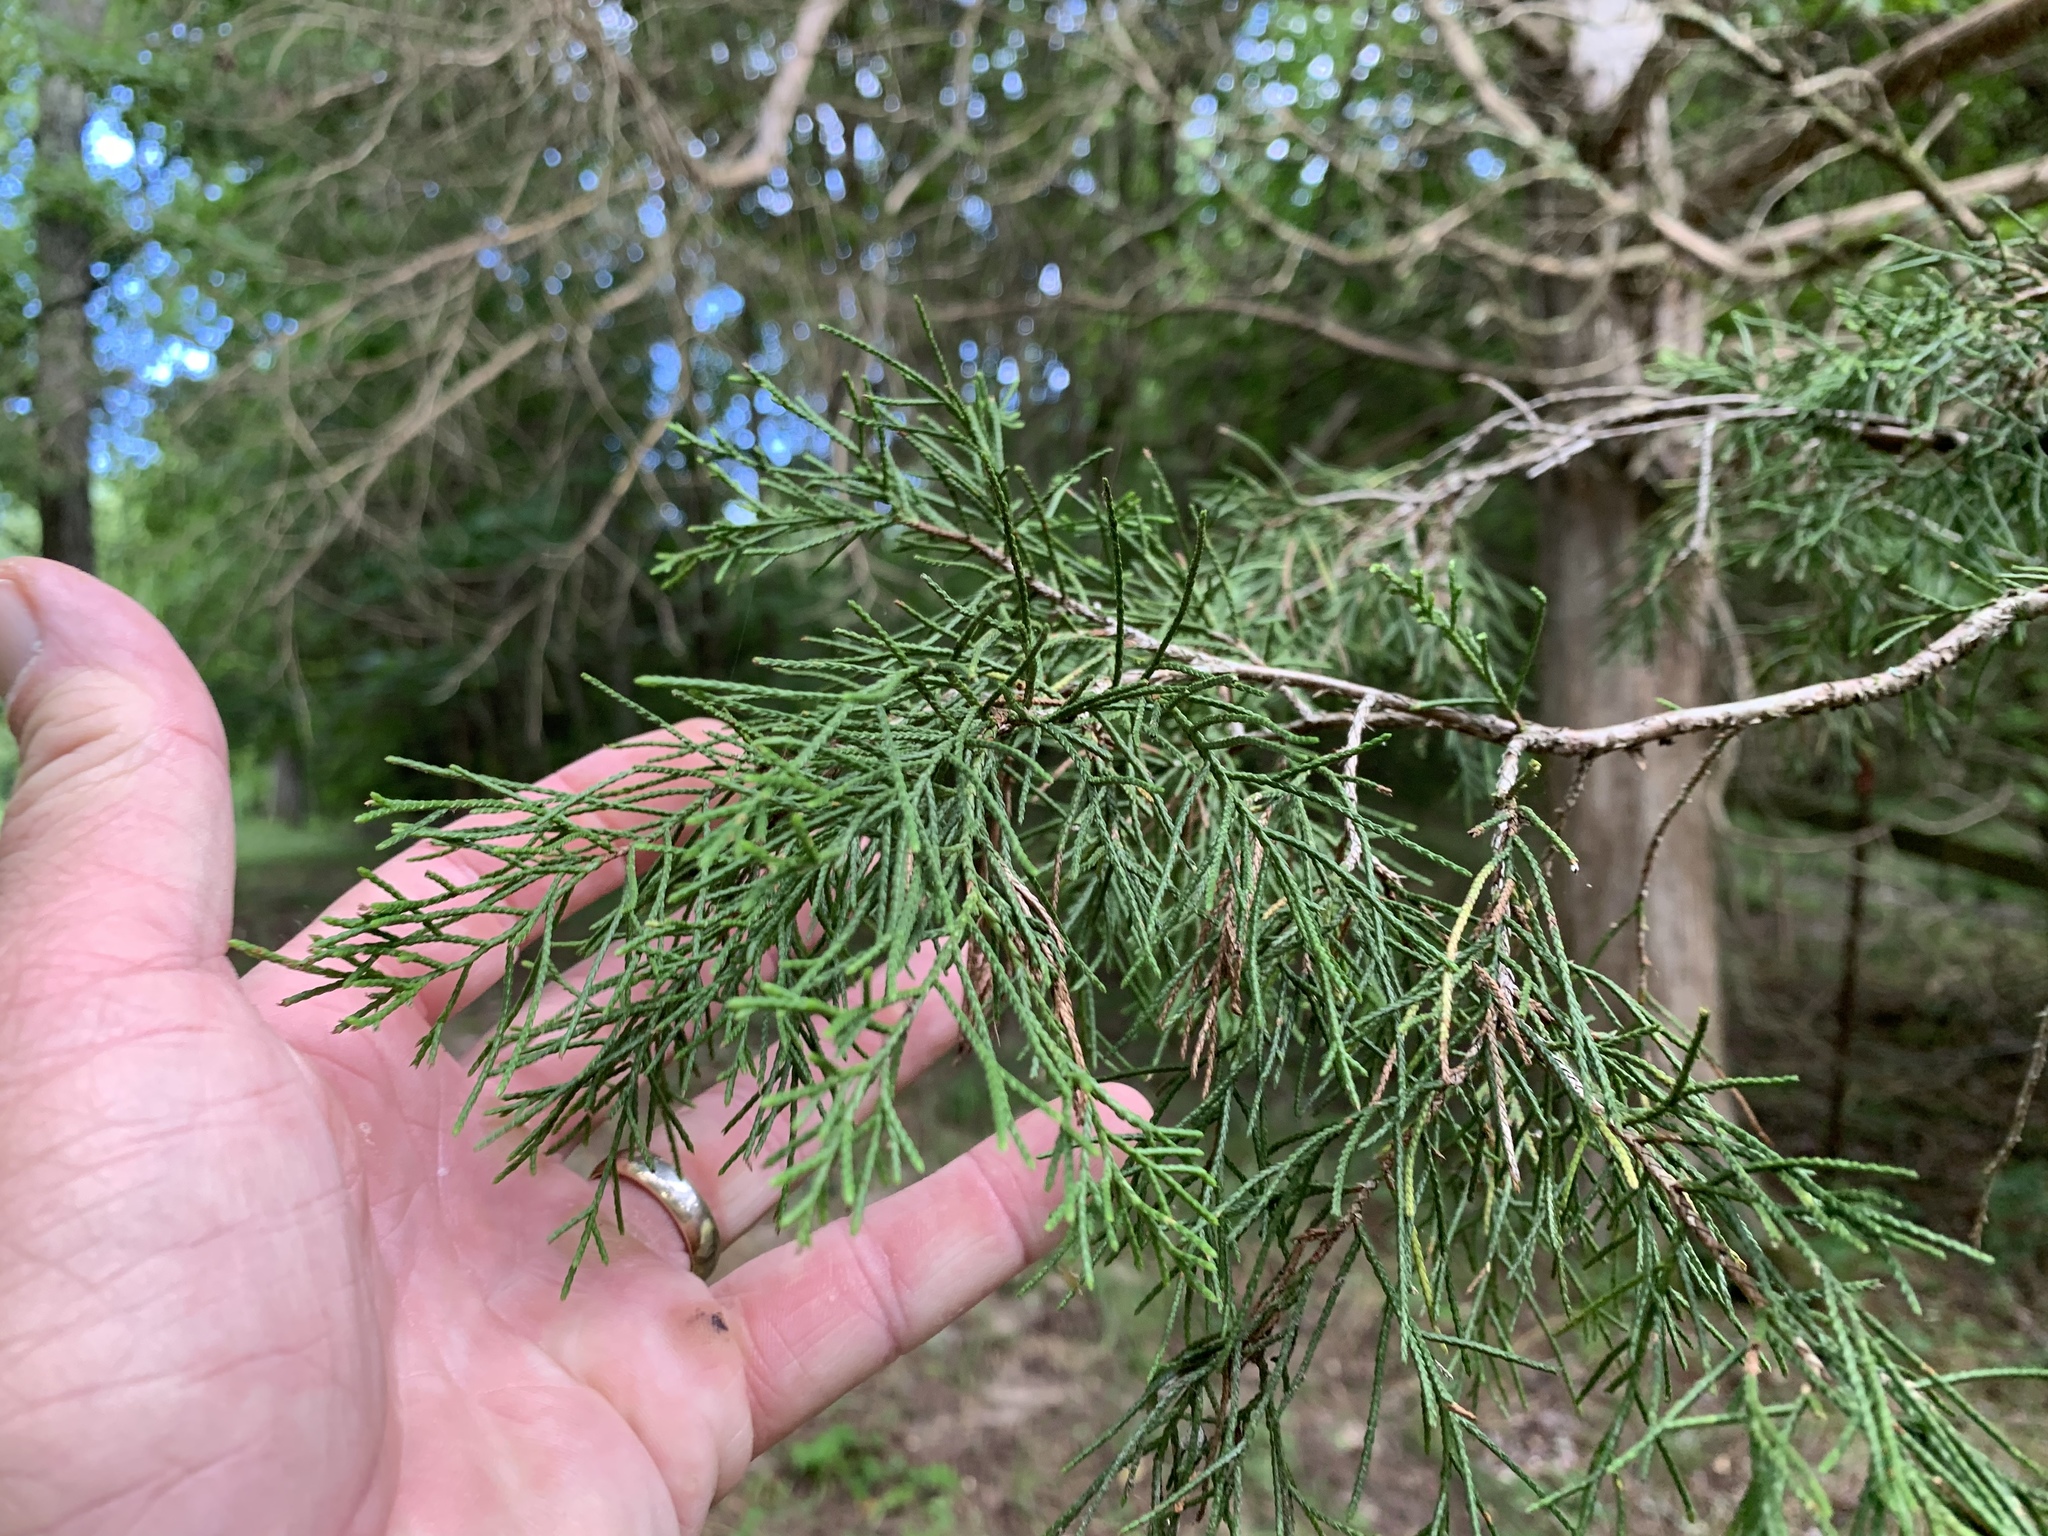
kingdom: Plantae
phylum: Tracheophyta
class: Pinopsida
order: Pinales
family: Cupressaceae
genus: Juniperus
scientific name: Juniperus virginiana
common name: Red juniper
